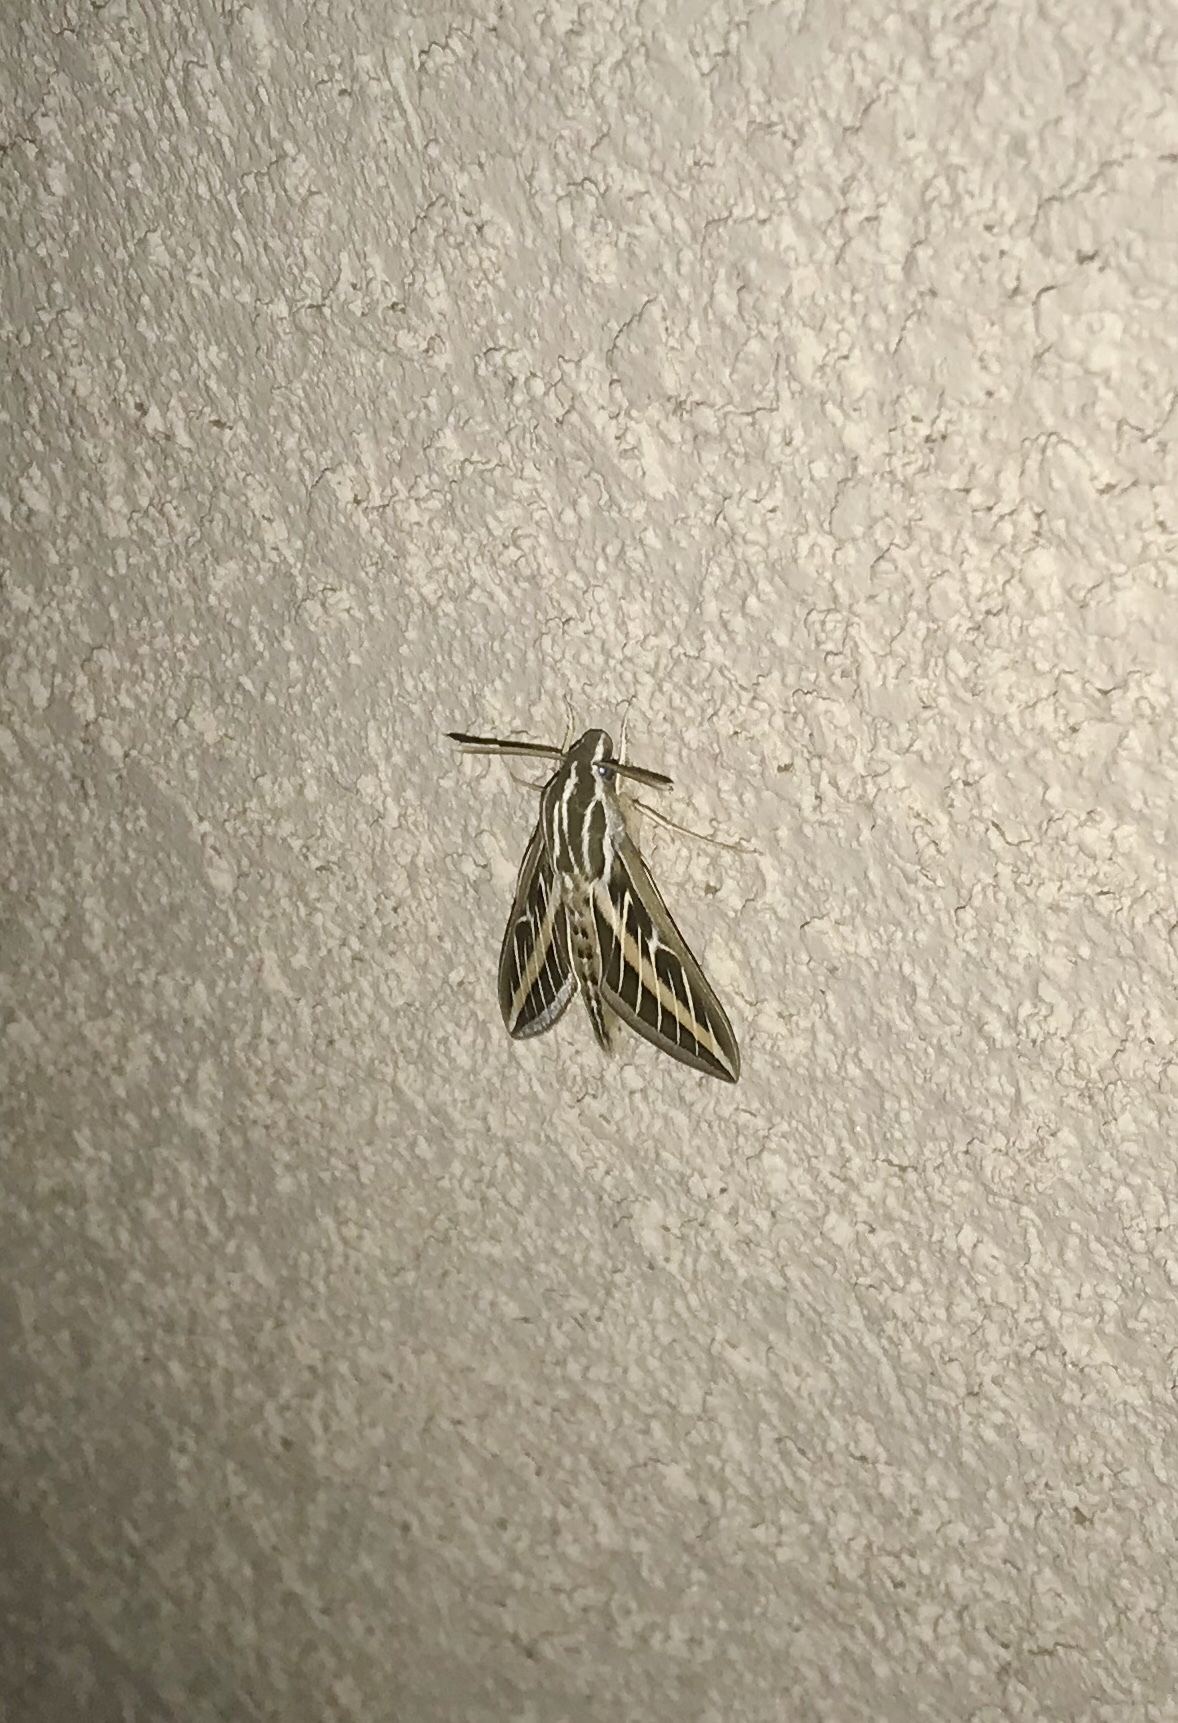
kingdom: Animalia
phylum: Arthropoda
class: Insecta
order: Lepidoptera
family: Sphingidae
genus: Hyles
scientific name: Hyles lineata
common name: White-lined sphinx
